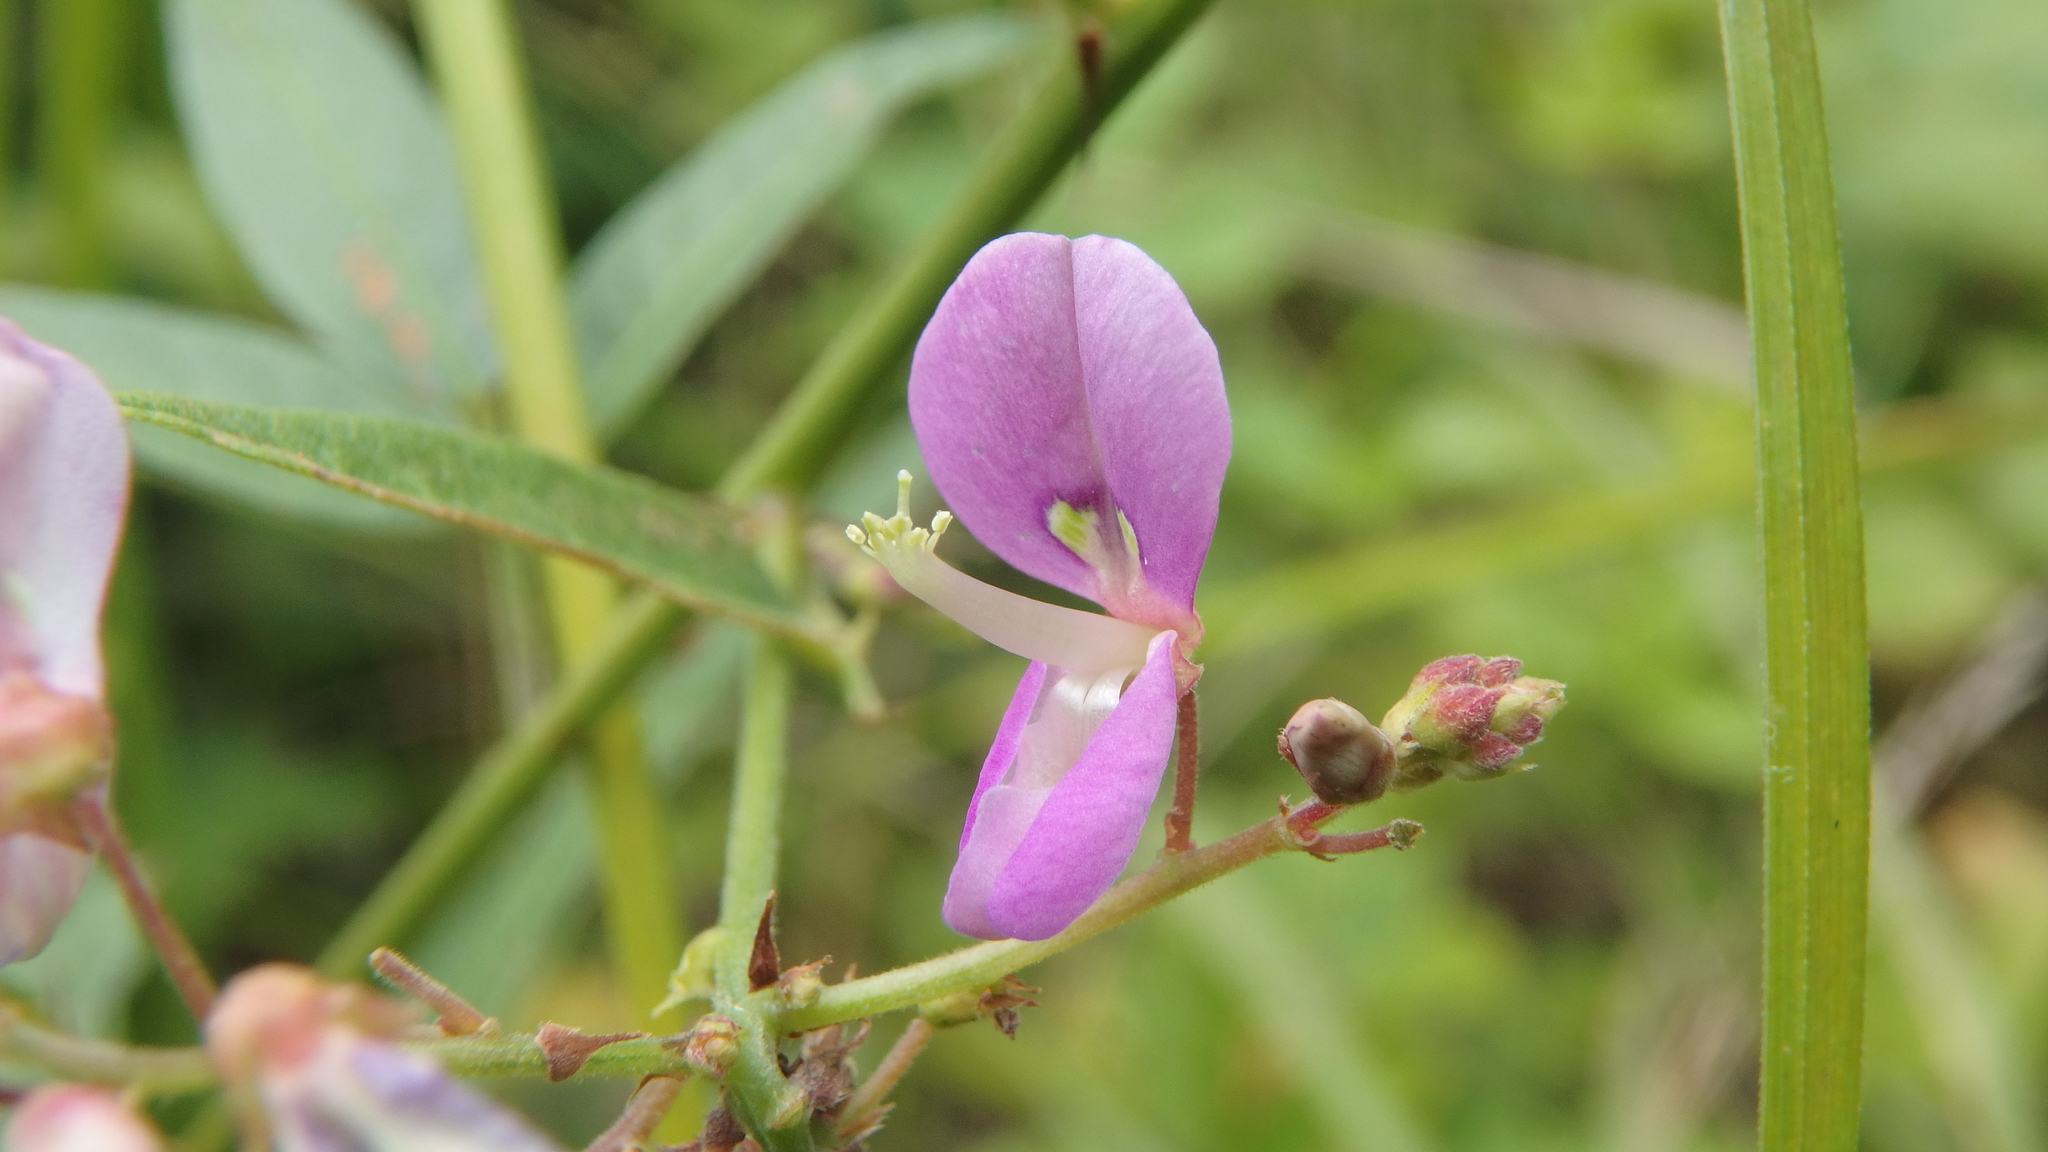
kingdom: Plantae
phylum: Tracheophyta
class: Magnoliopsida
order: Fabales
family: Fabaceae
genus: Desmodium
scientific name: Desmodium
